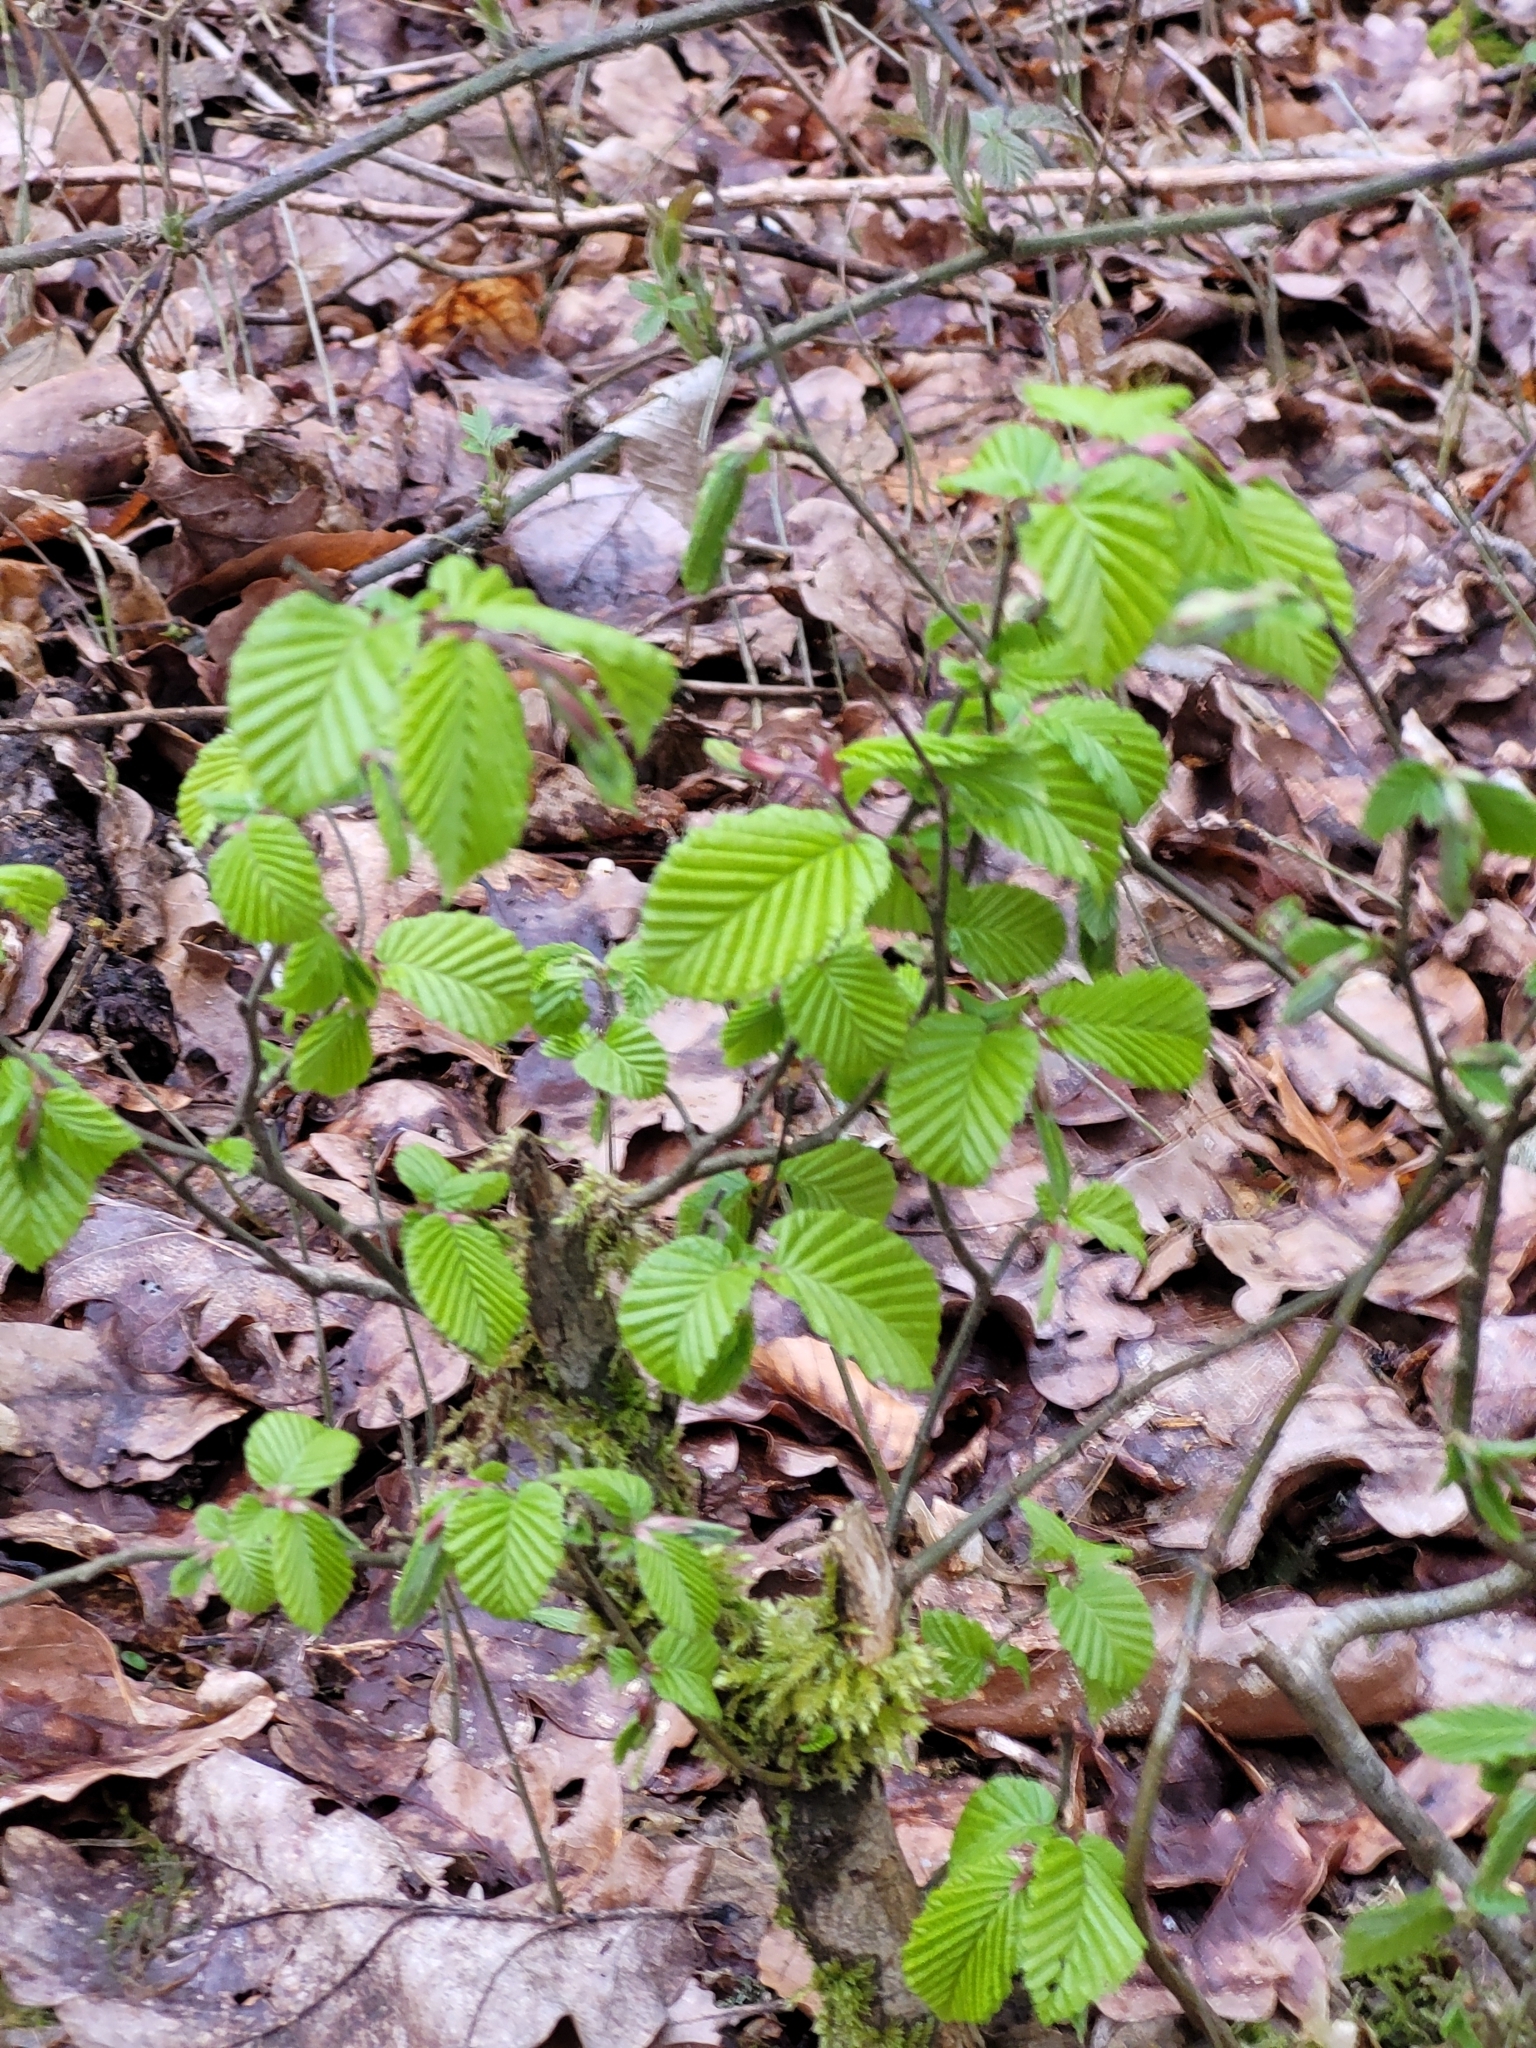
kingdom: Plantae
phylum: Tracheophyta
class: Magnoliopsida
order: Fagales
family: Betulaceae
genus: Carpinus
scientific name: Carpinus betulus
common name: Hornbeam
